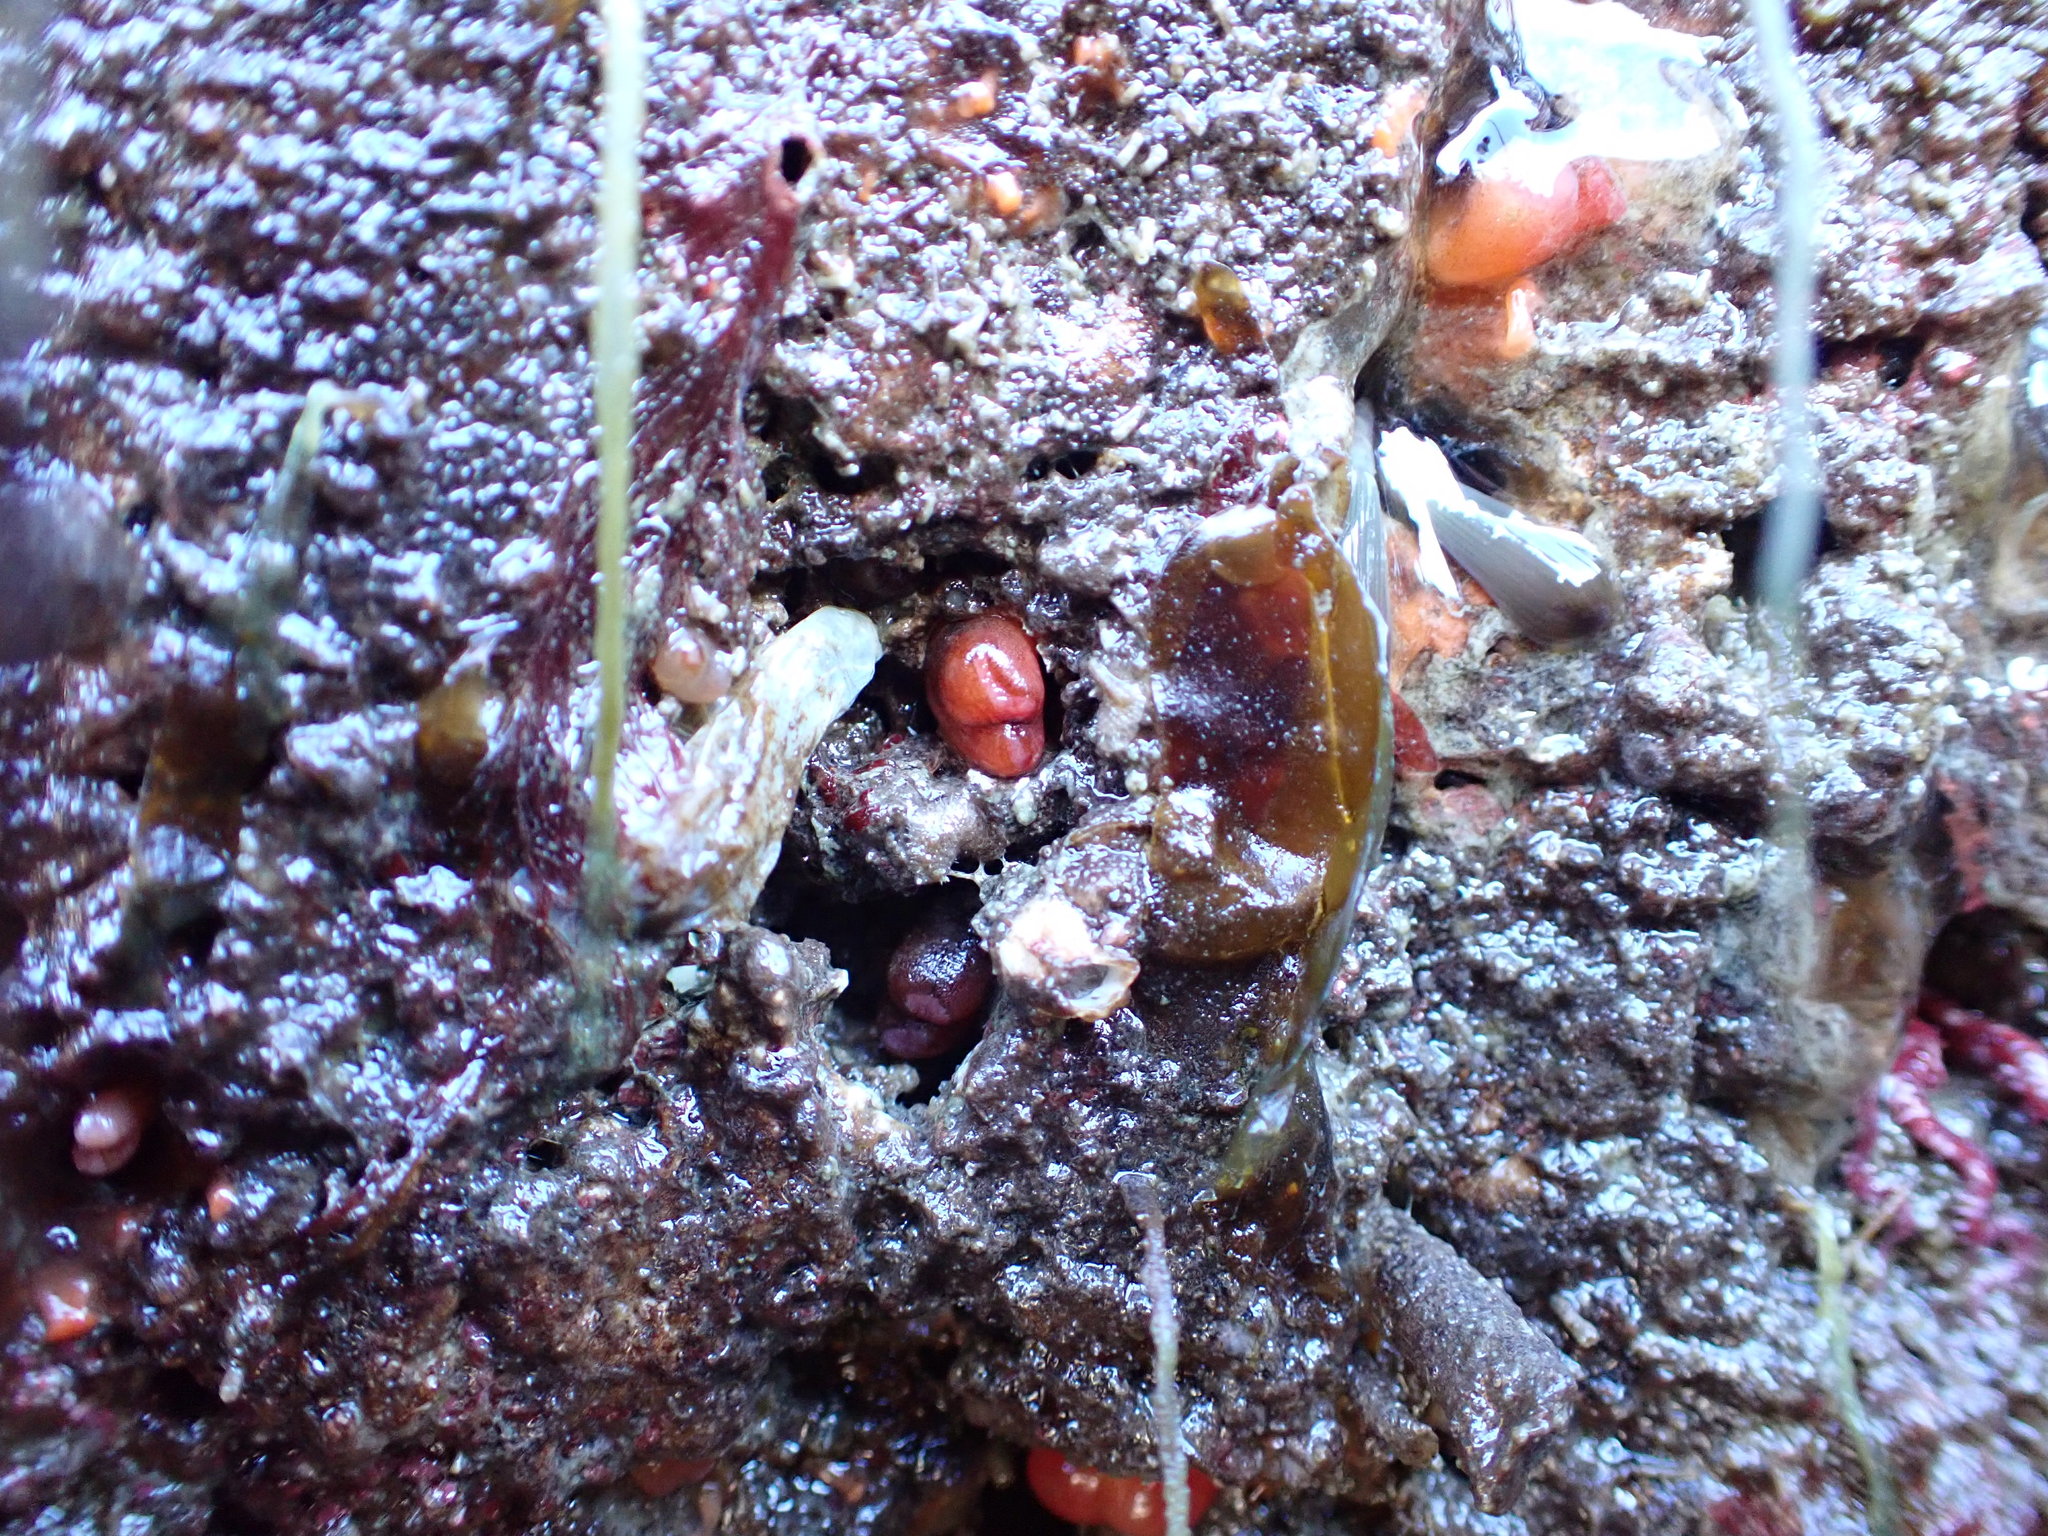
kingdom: Animalia
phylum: Mollusca
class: Bivalvia
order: Adapedonta
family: Hiatellidae
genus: Hiatella
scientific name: Hiatella arctica
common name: Arctic hiatella
